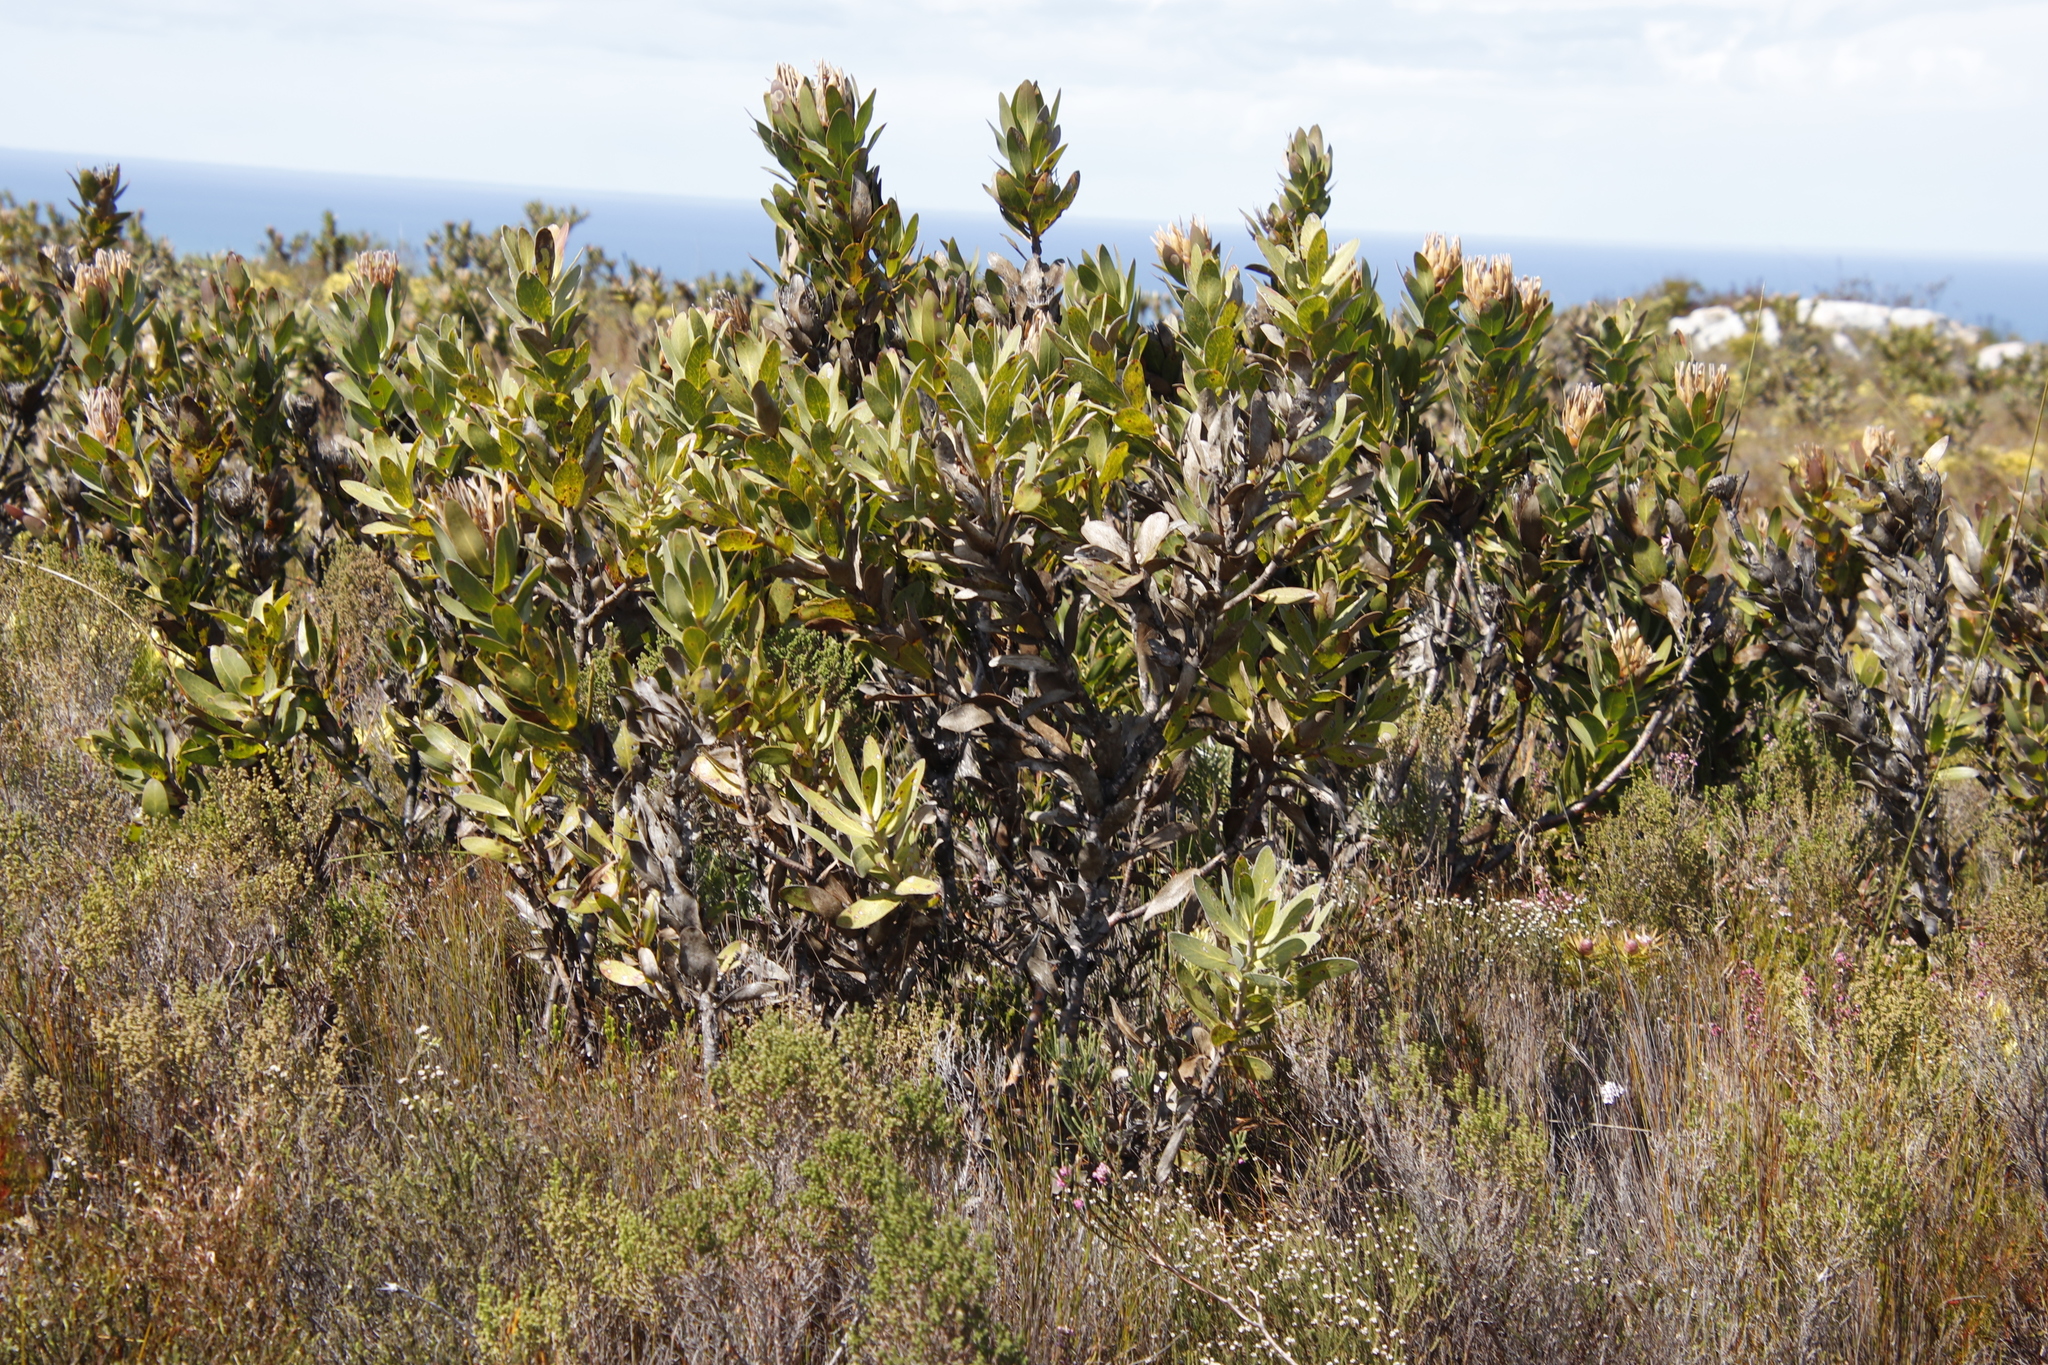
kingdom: Plantae
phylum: Tracheophyta
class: Magnoliopsida
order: Proteales
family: Proteaceae
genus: Protea
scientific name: Protea compacta
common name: Bot river protea
